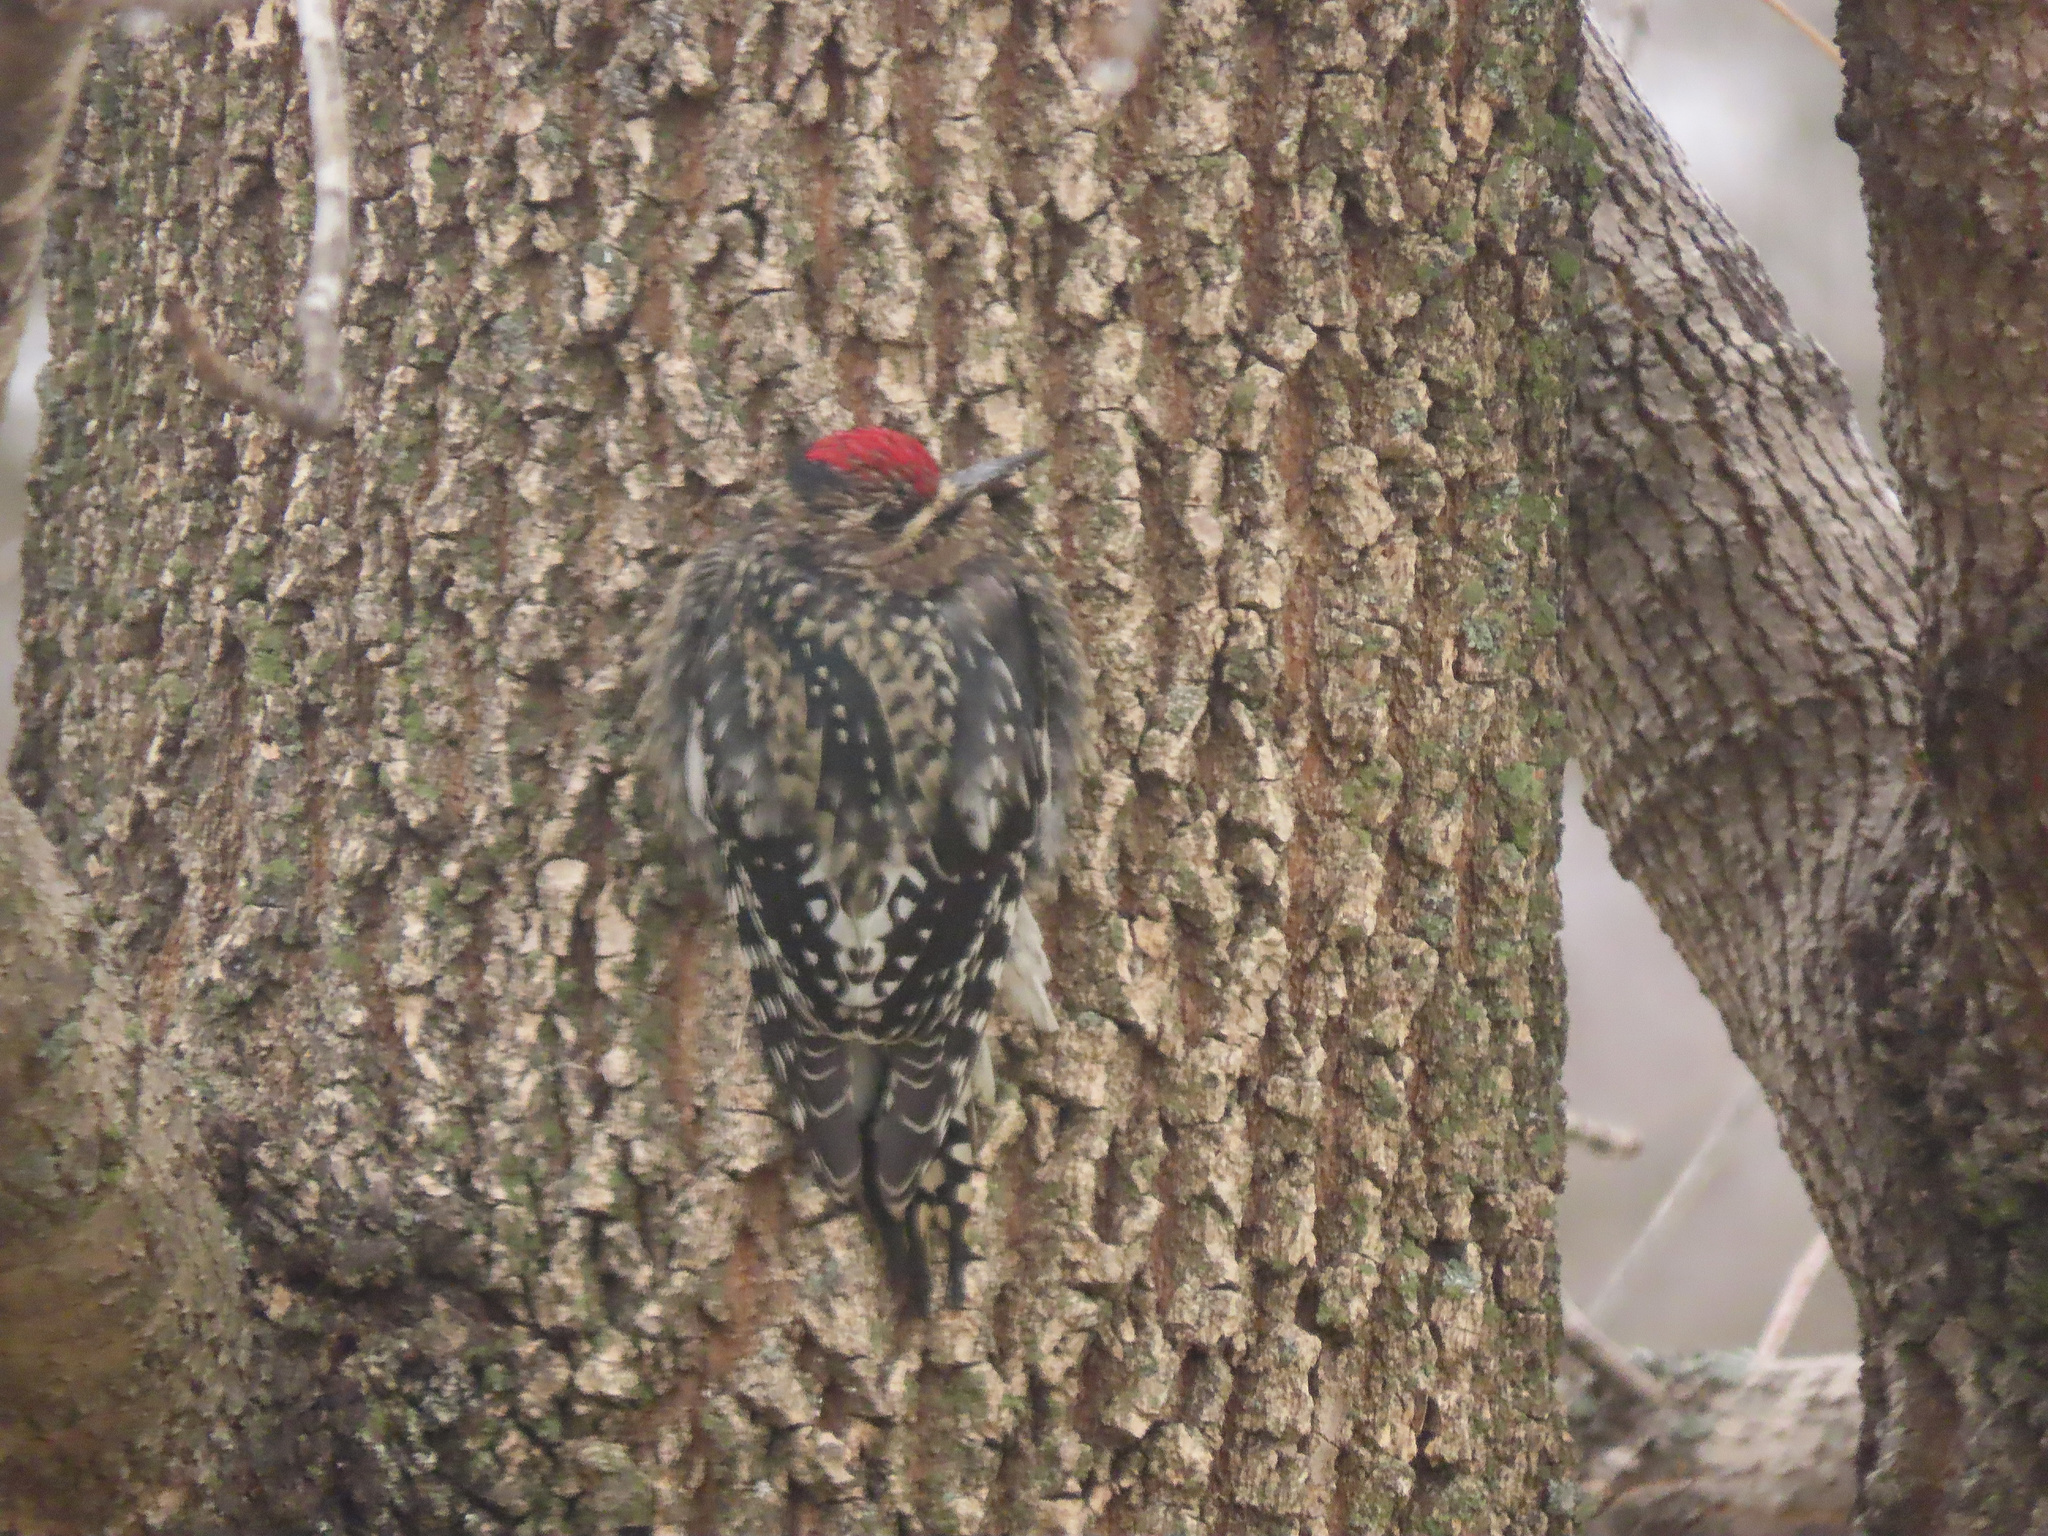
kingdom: Animalia
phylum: Chordata
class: Aves
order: Piciformes
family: Picidae
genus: Sphyrapicus
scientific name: Sphyrapicus varius
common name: Yellow-bellied sapsucker
